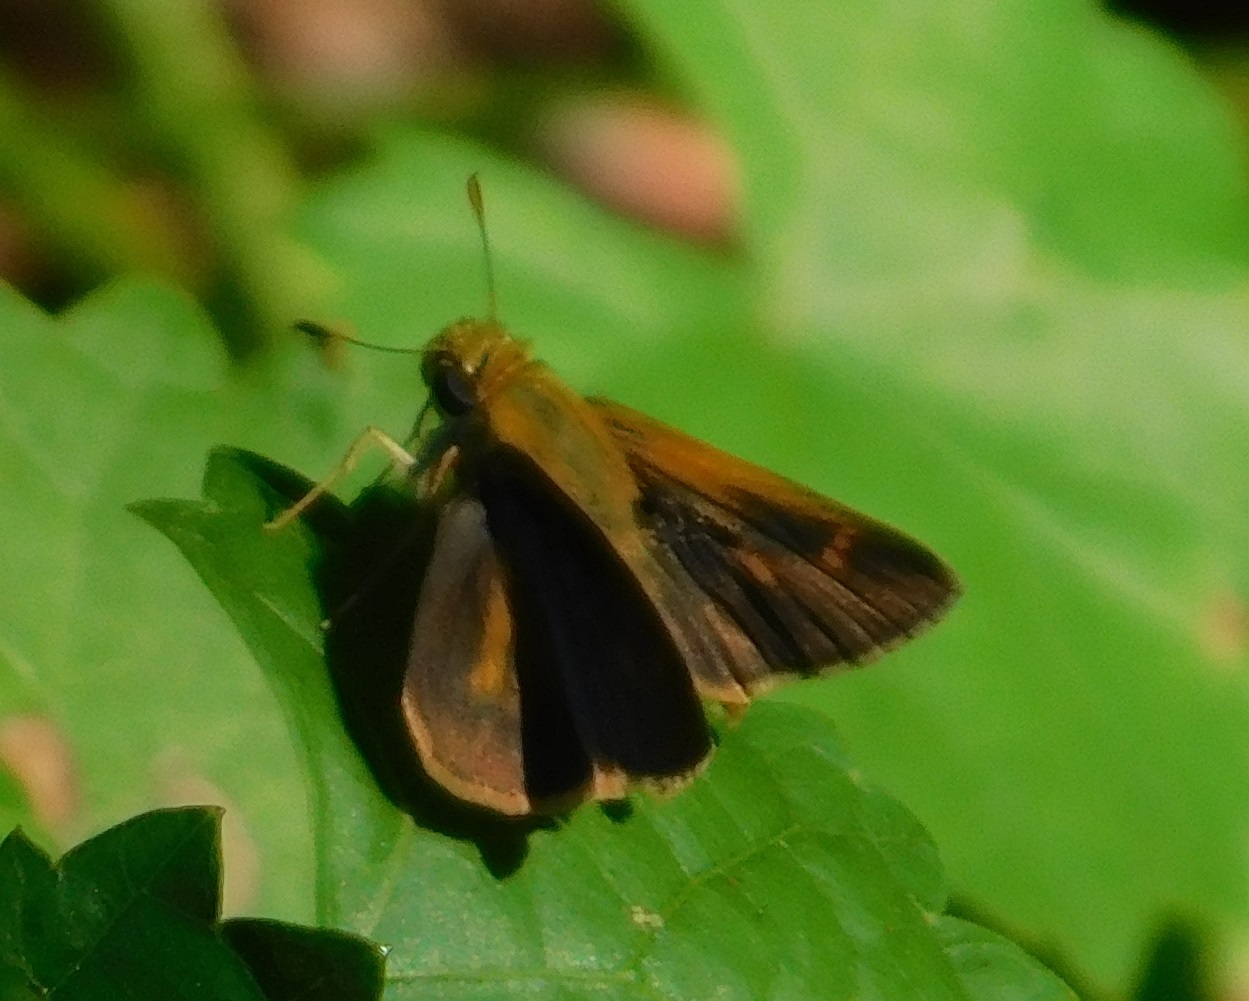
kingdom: Animalia
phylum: Arthropoda
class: Insecta
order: Lepidoptera
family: Hesperiidae
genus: Polites
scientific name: Polites otho
